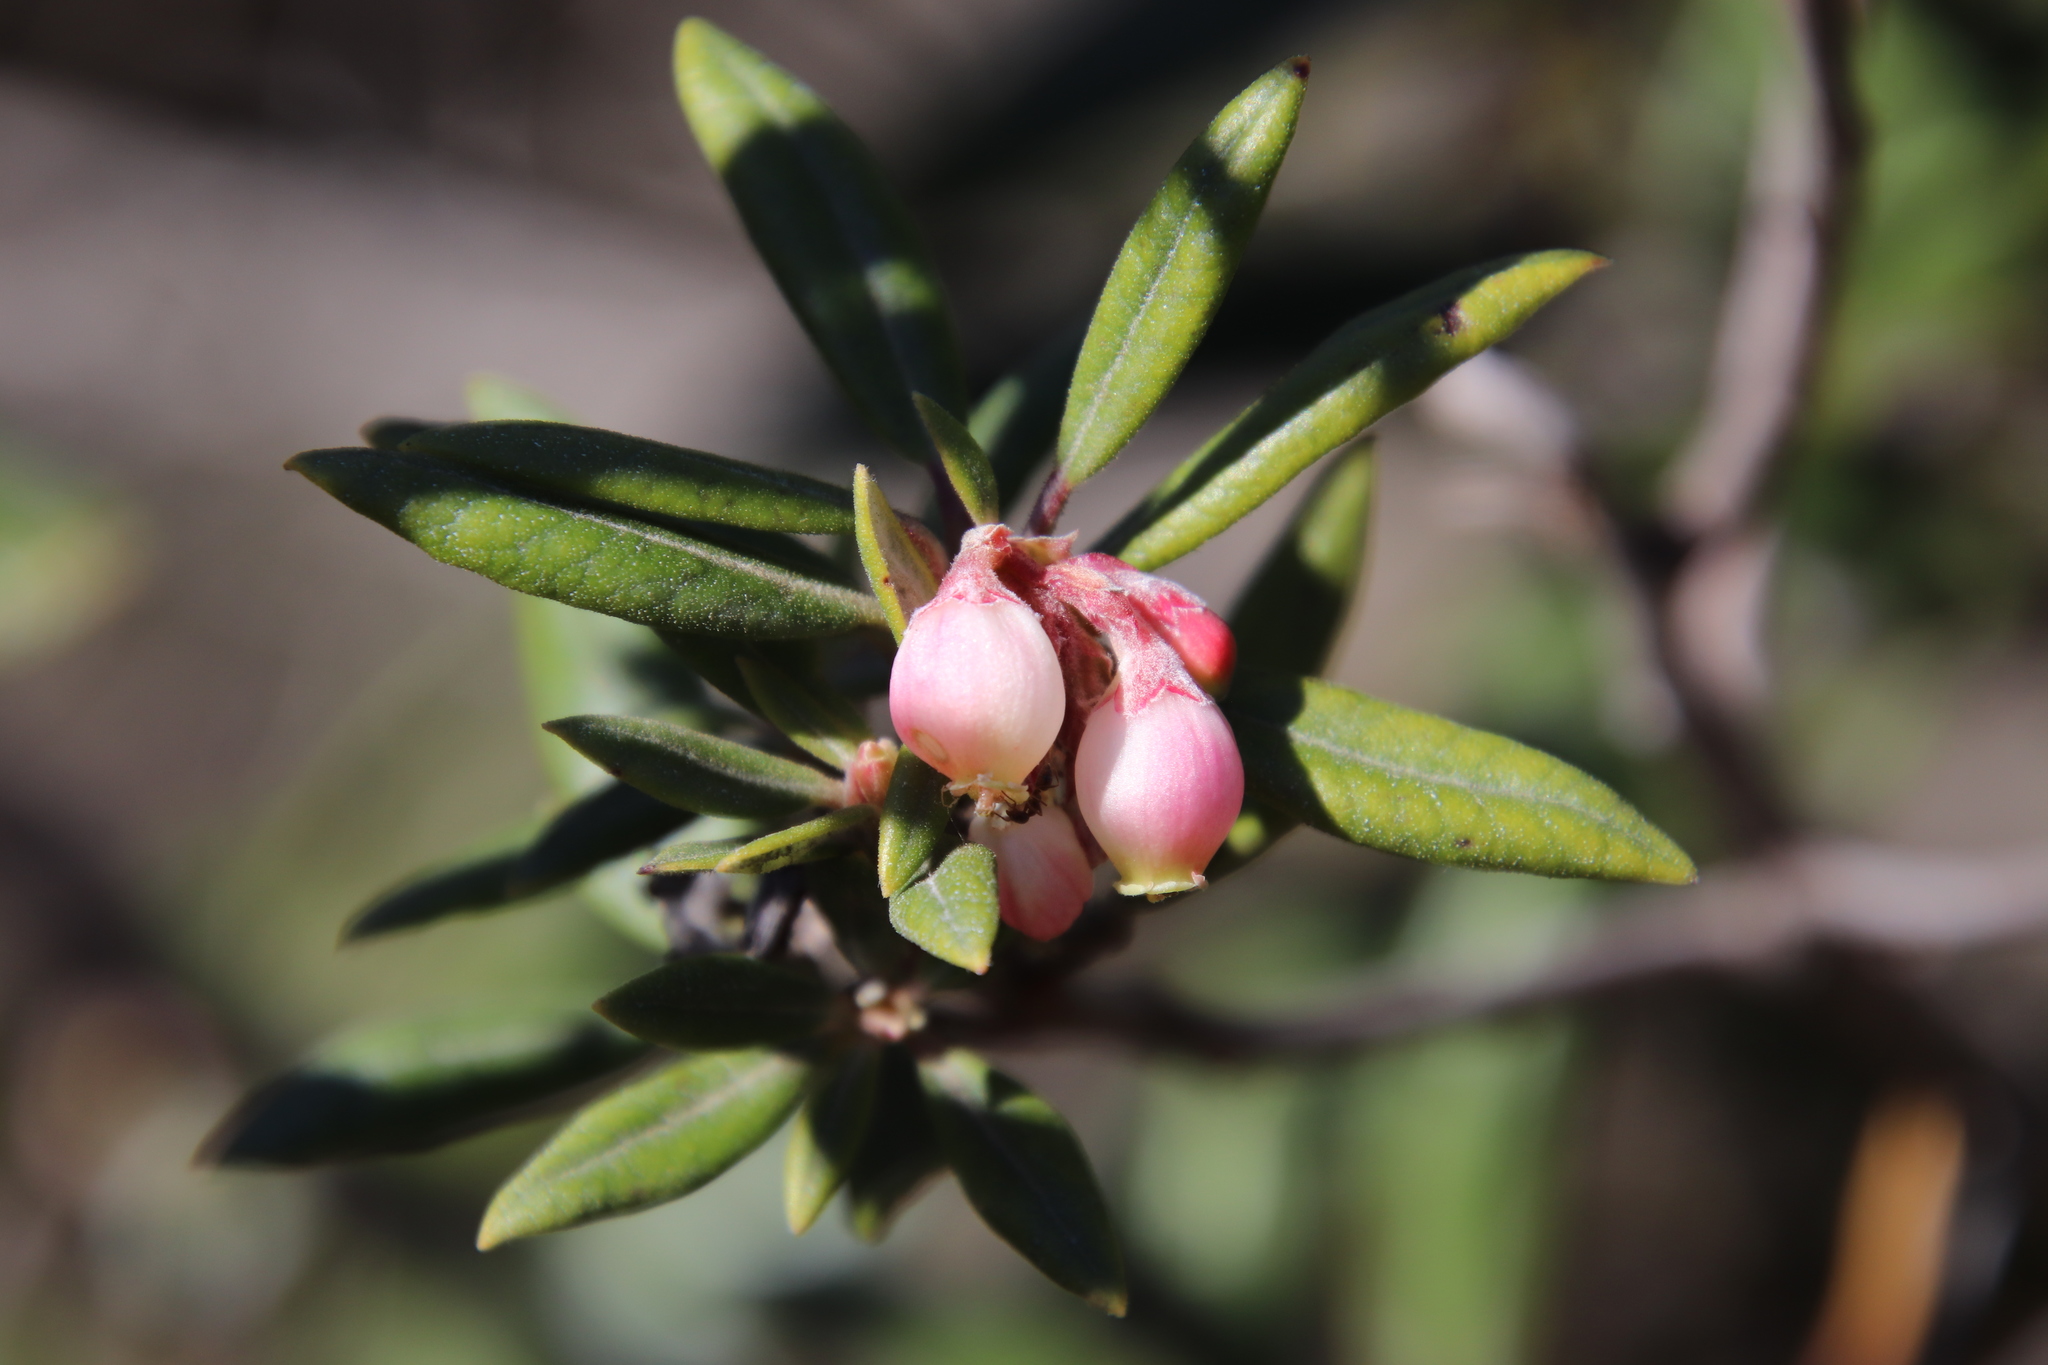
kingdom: Plantae
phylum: Tracheophyta
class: Magnoliopsida
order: Ericales
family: Ericaceae
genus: Arctostaphylos
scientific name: Arctostaphylos bicolor
